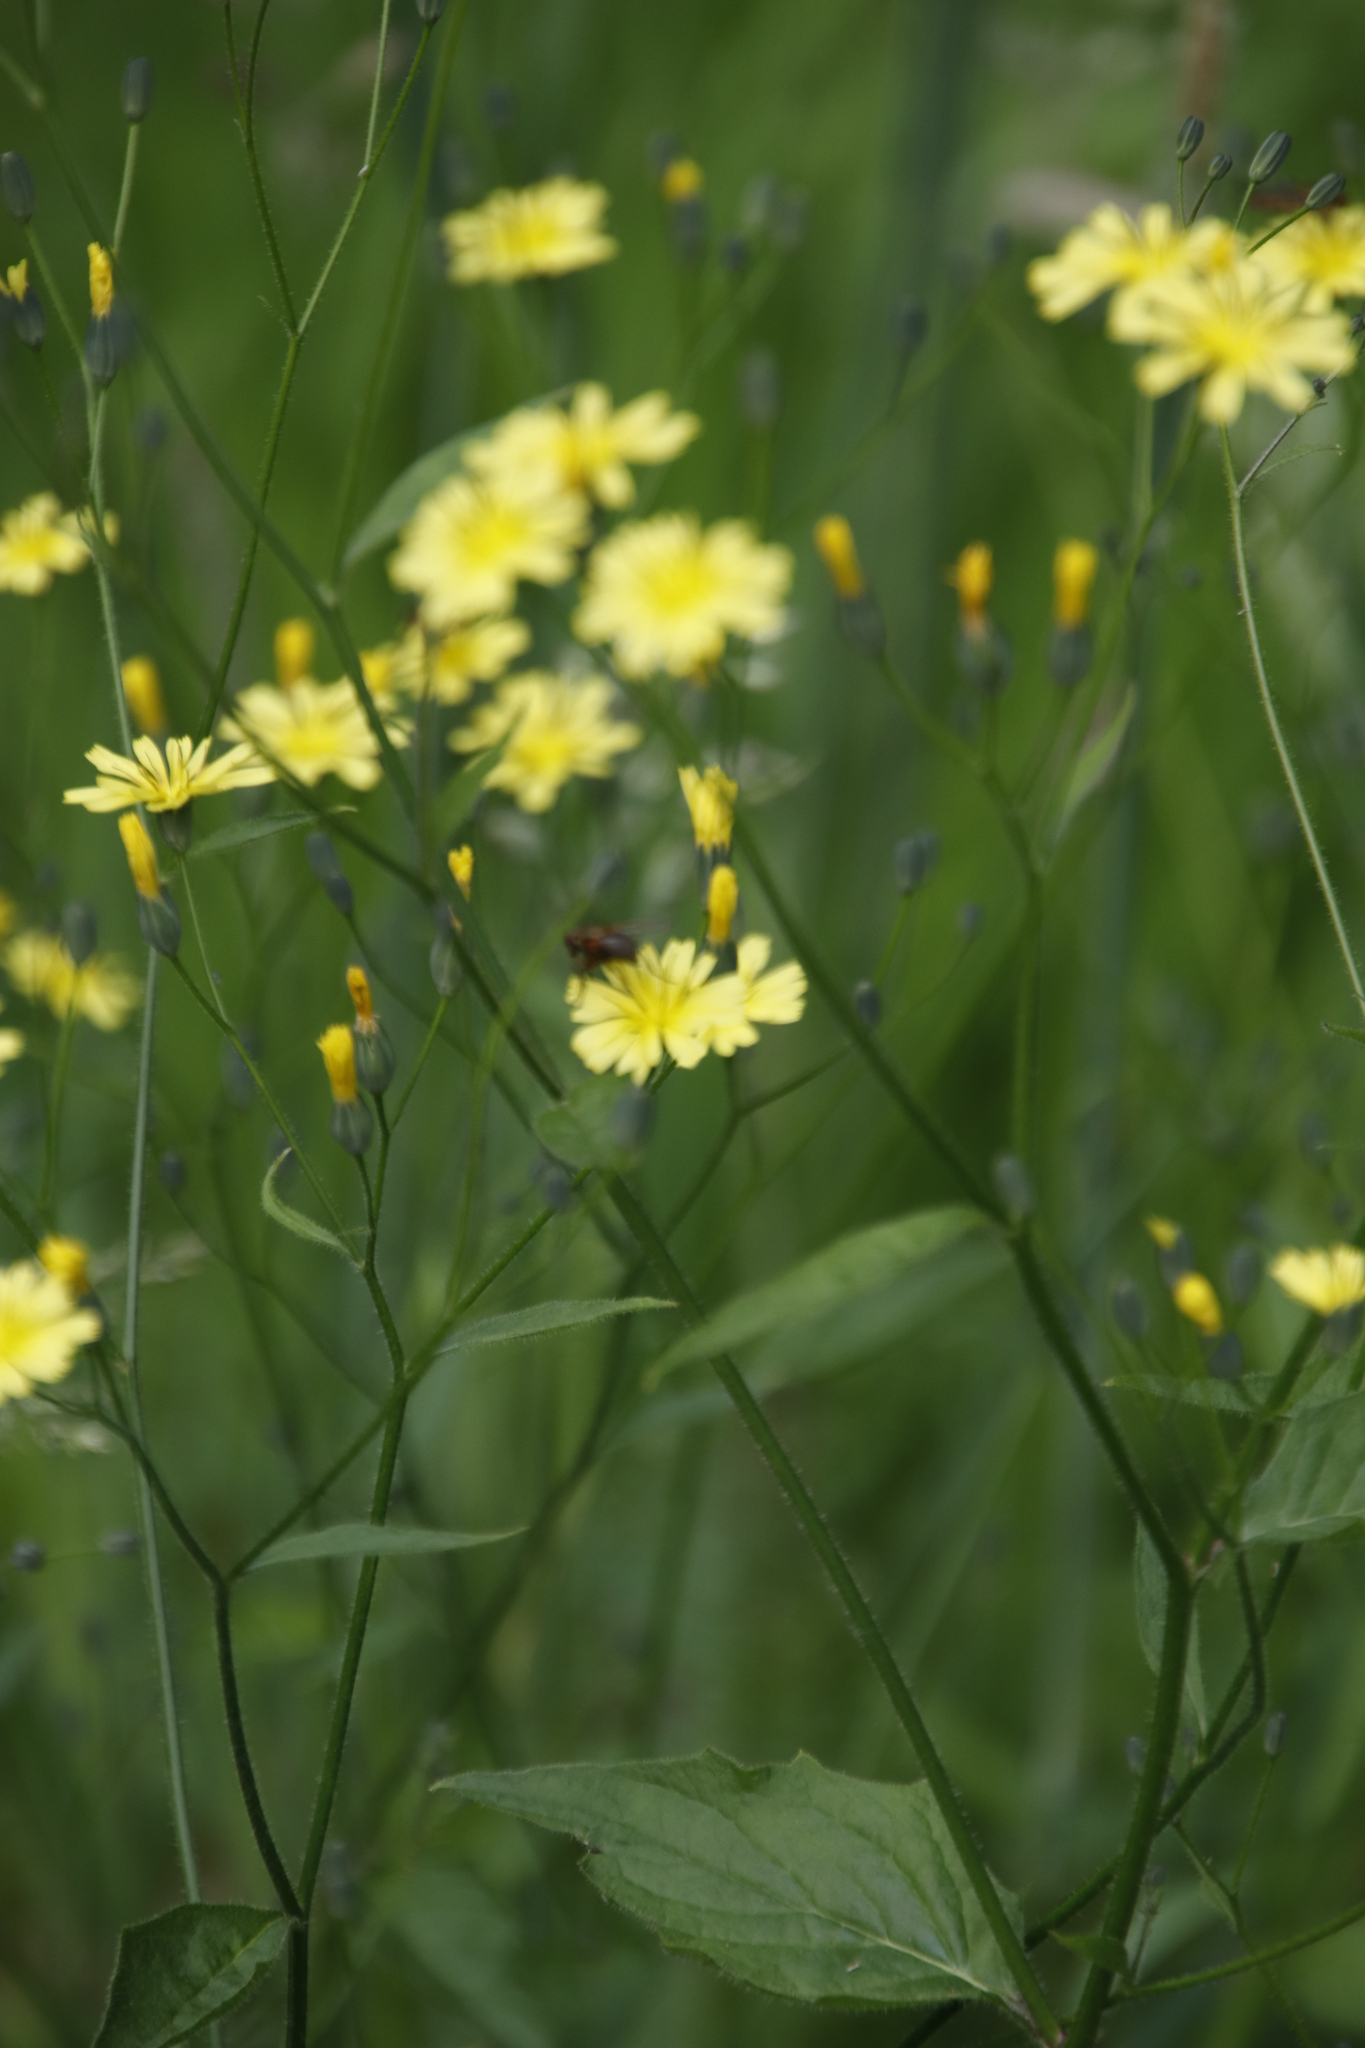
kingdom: Plantae
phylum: Tracheophyta
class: Magnoliopsida
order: Asterales
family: Asteraceae
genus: Lapsana
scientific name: Lapsana communis
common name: Nipplewort
